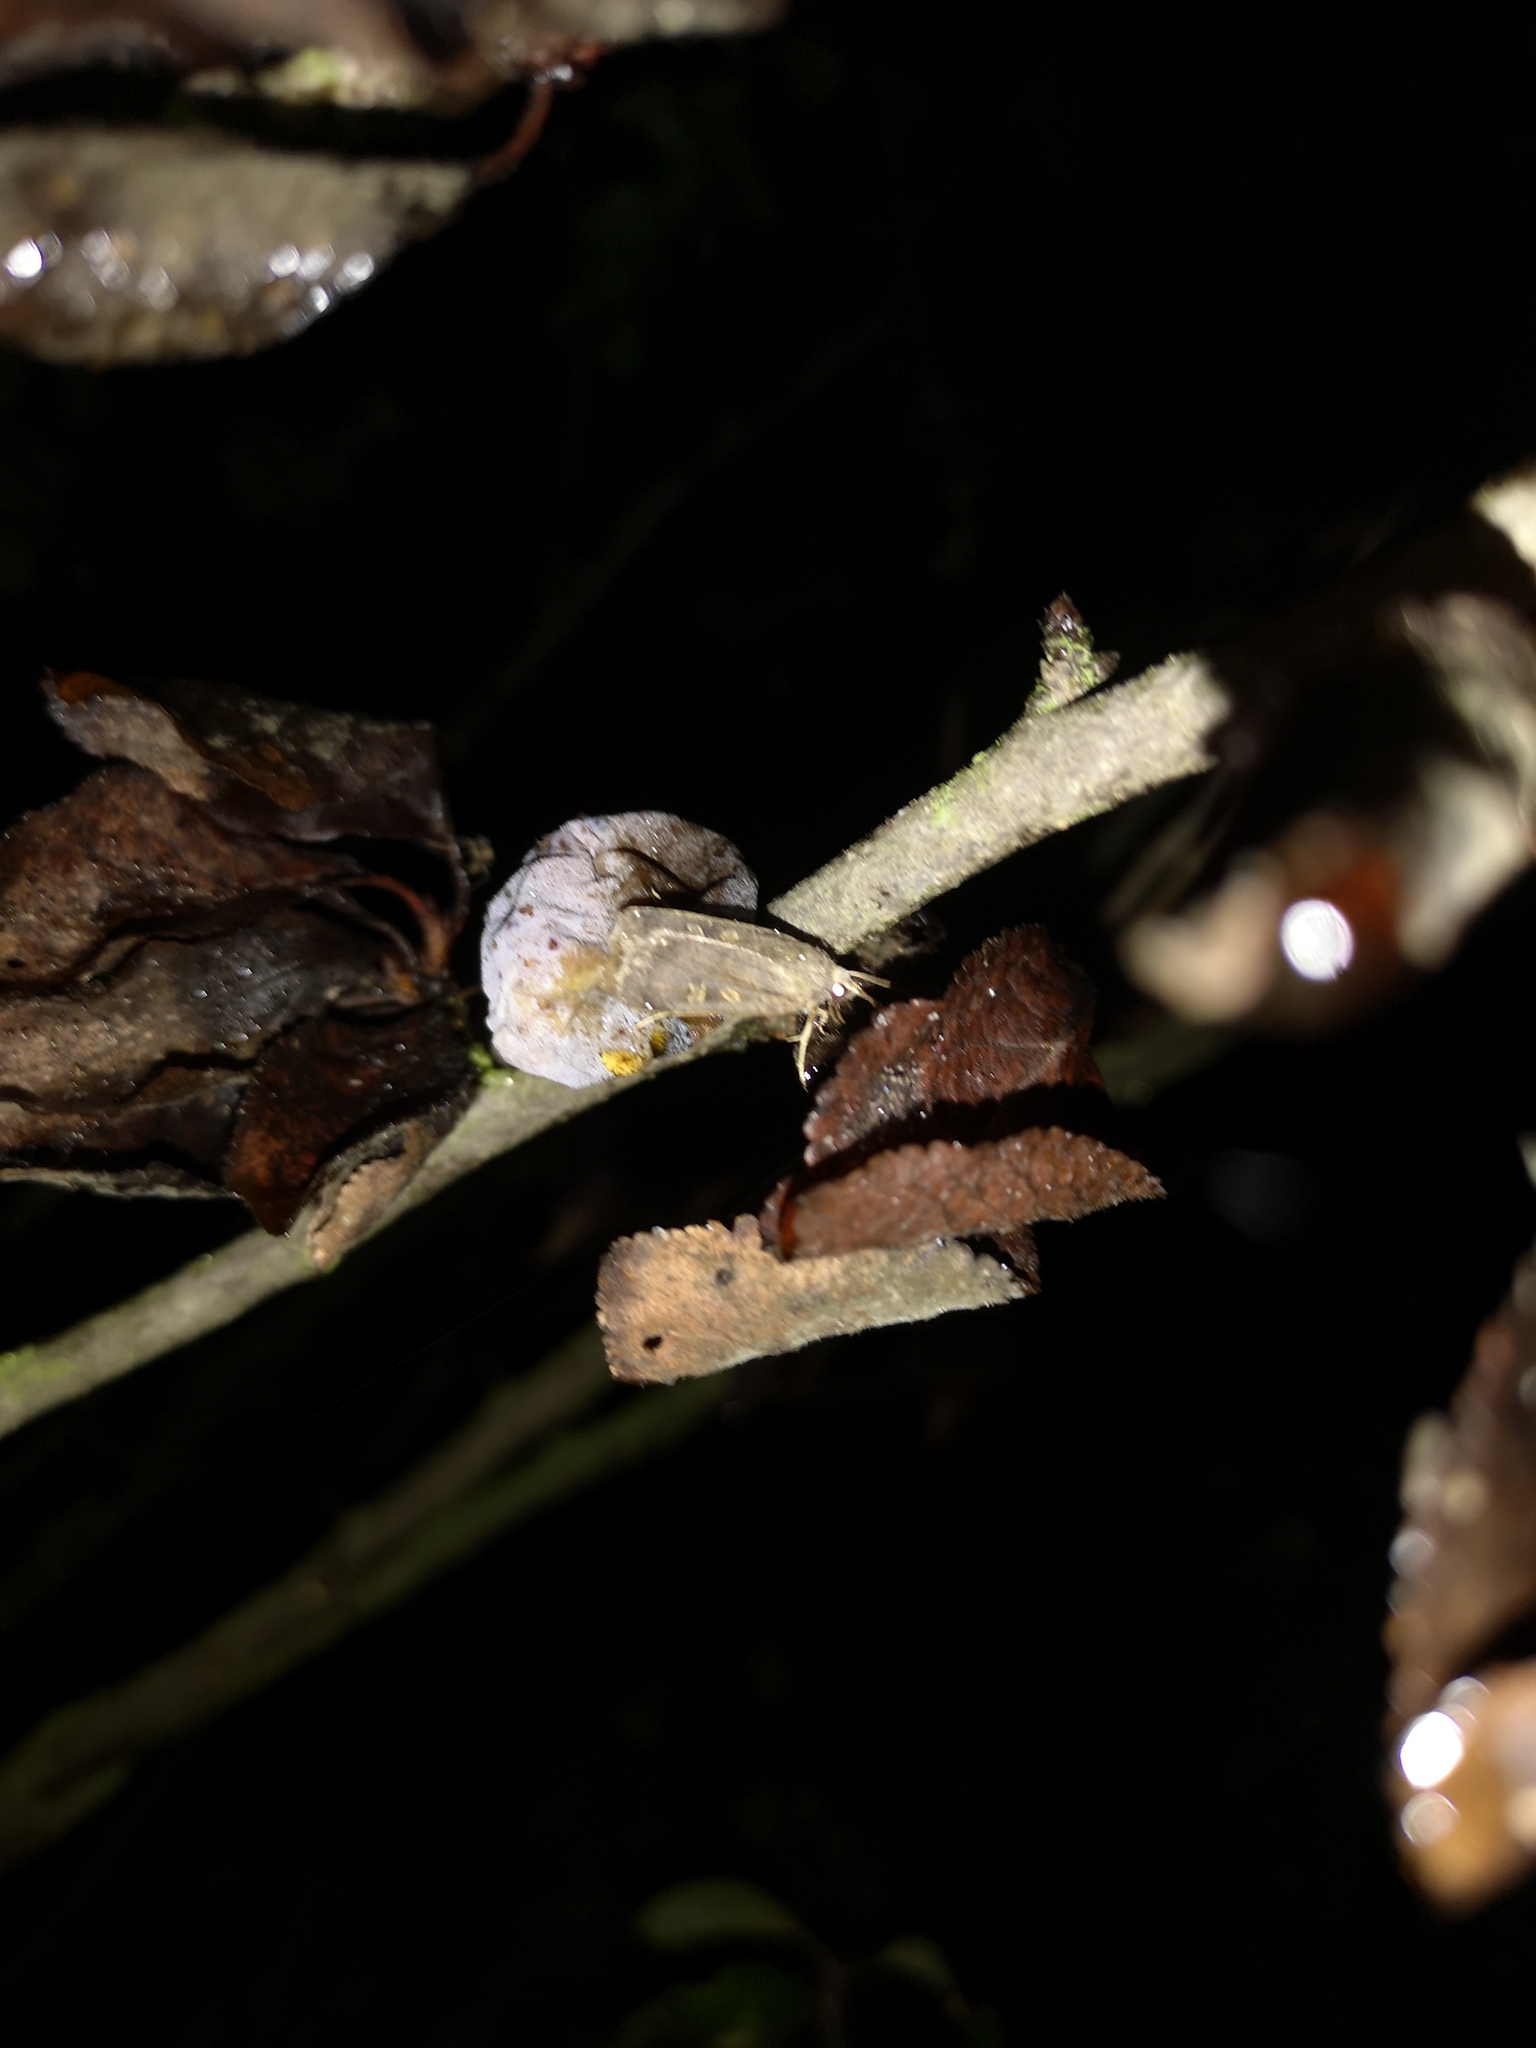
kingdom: Animalia
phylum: Arthropoda
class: Insecta
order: Lepidoptera
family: Noctuidae
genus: Xestia
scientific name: Xestia xanthographa
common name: Square-spot rustic
